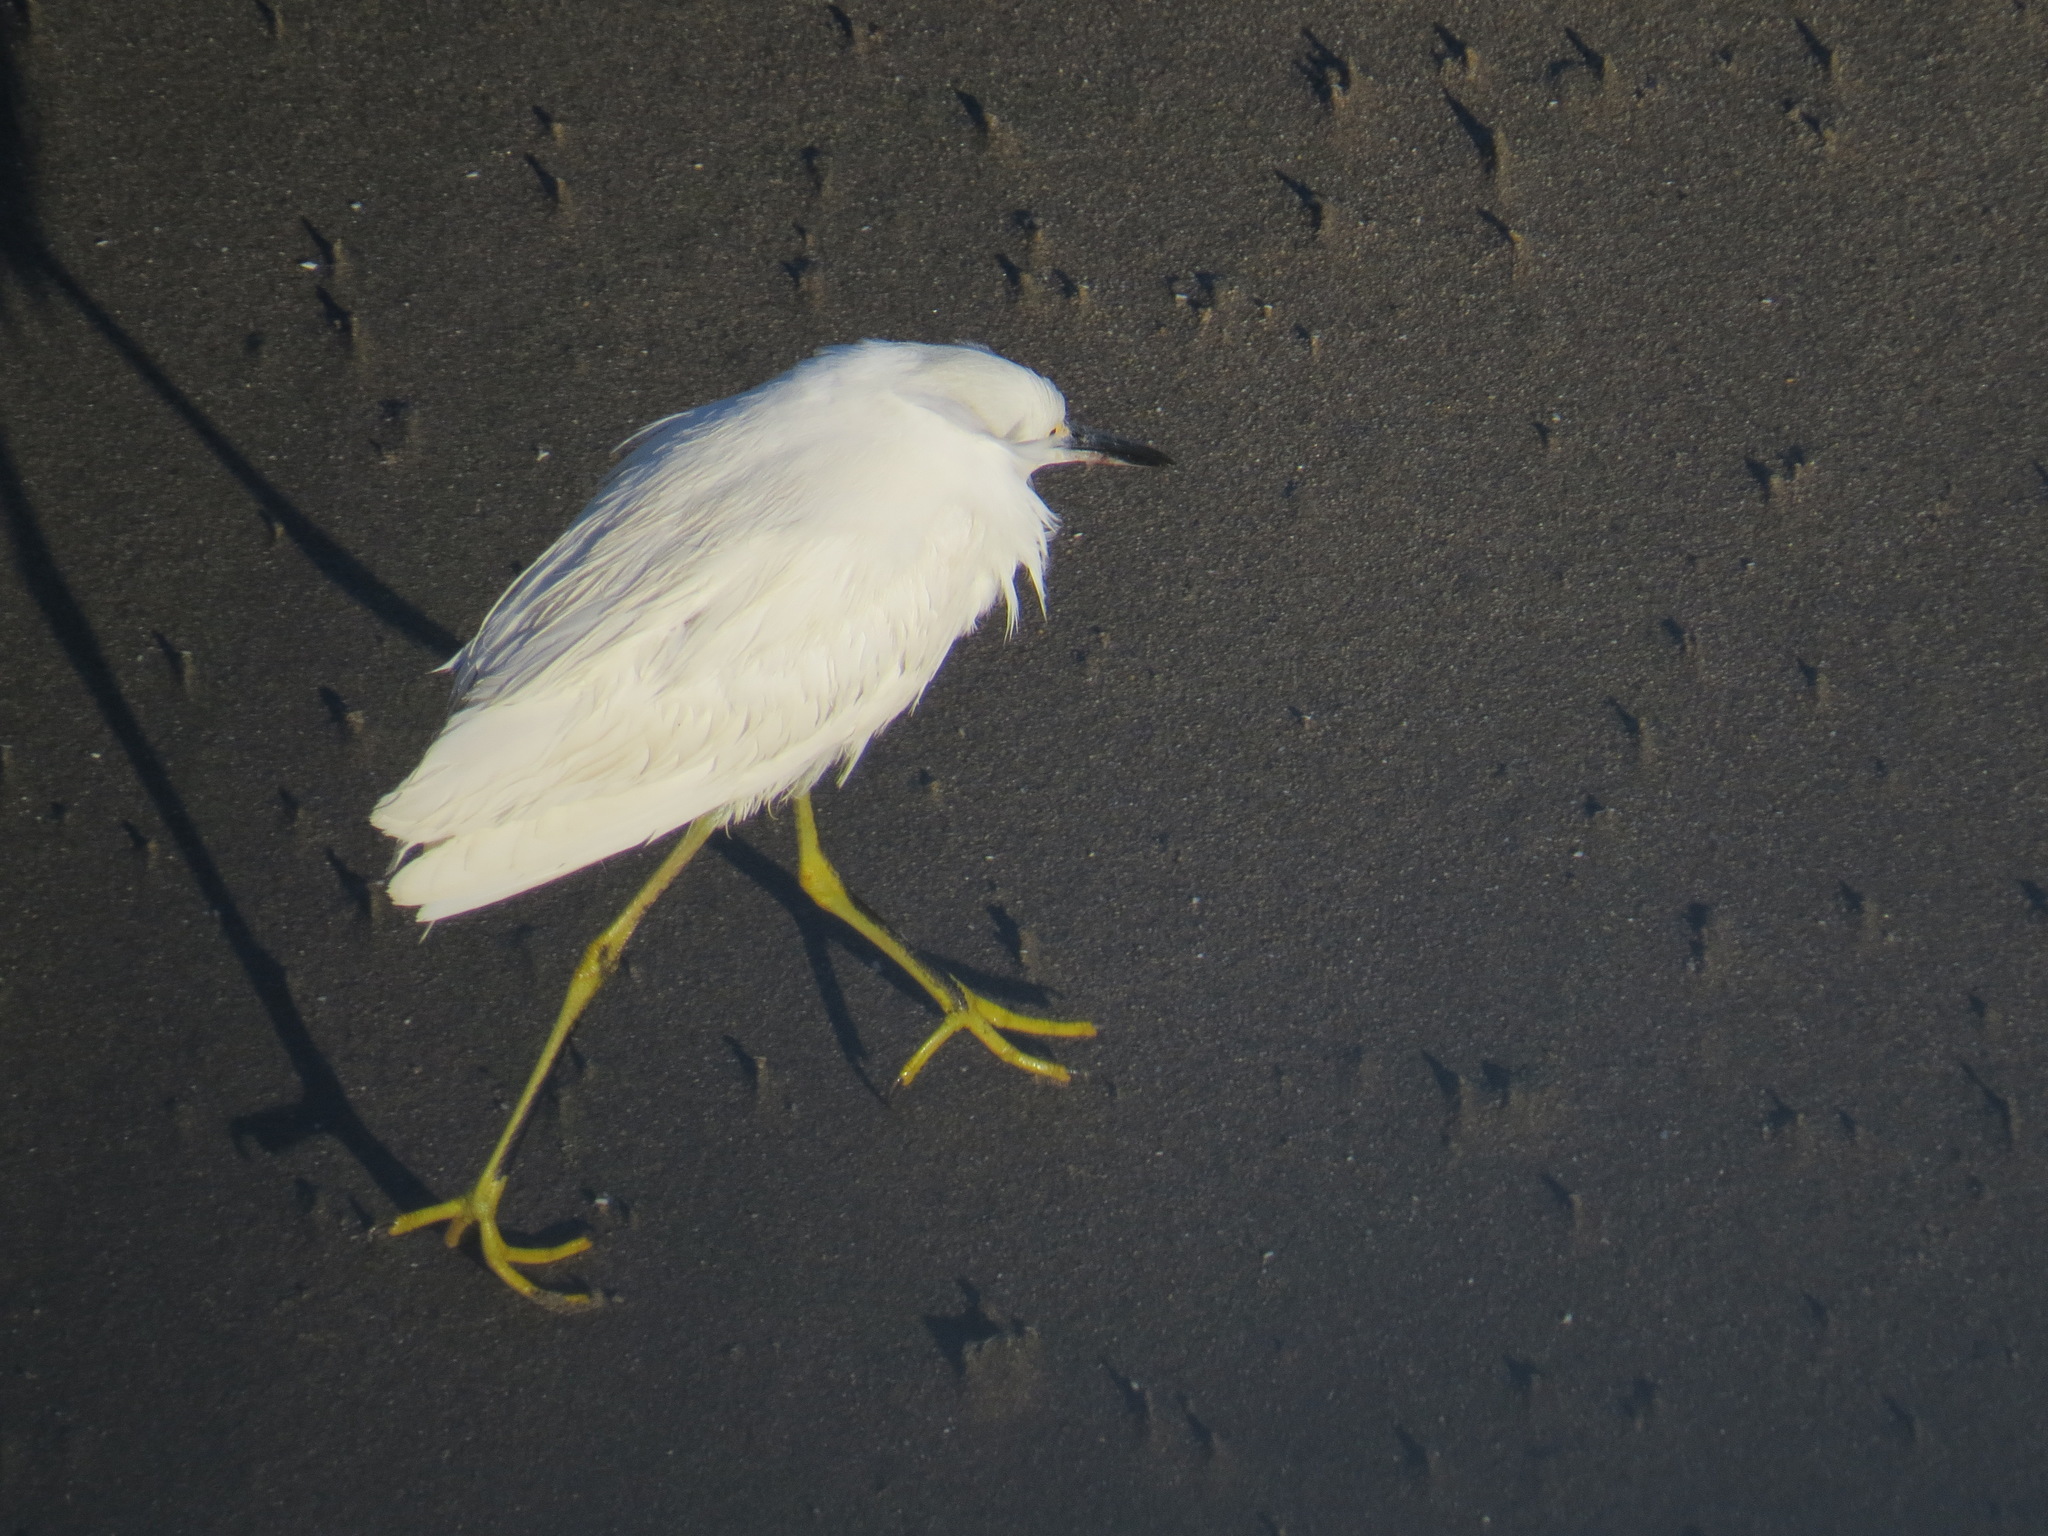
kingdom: Animalia
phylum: Chordata
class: Aves
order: Pelecaniformes
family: Ardeidae
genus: Egretta
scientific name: Egretta thula
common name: Snowy egret
